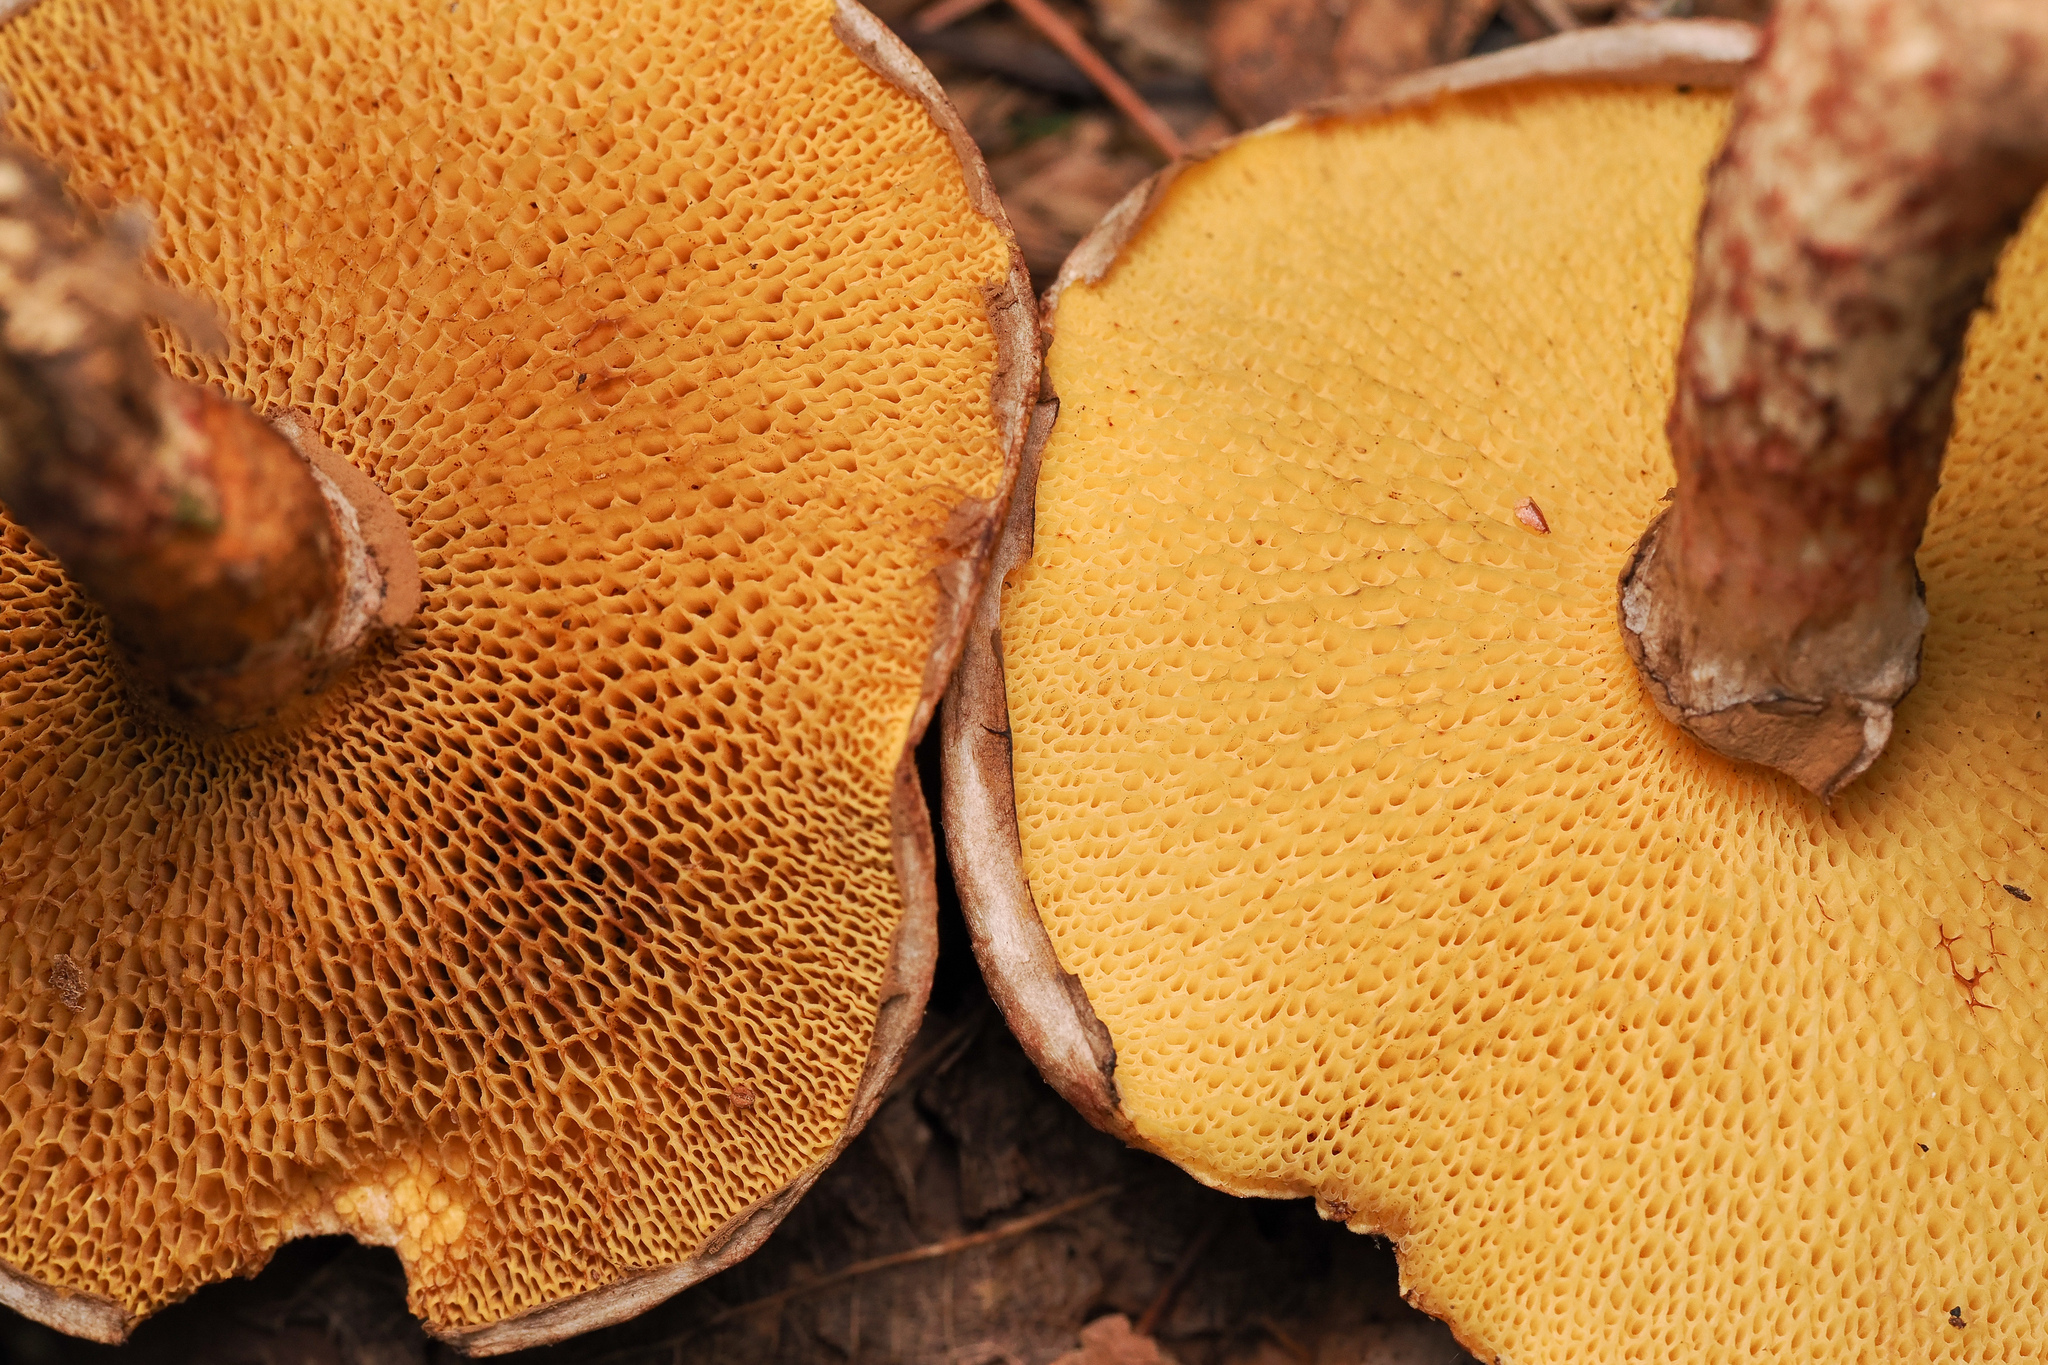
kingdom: Fungi
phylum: Basidiomycota
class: Agaricomycetes
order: Boletales
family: Suillaceae
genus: Suillus
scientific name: Suillus spraguei
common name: Painted suillus
